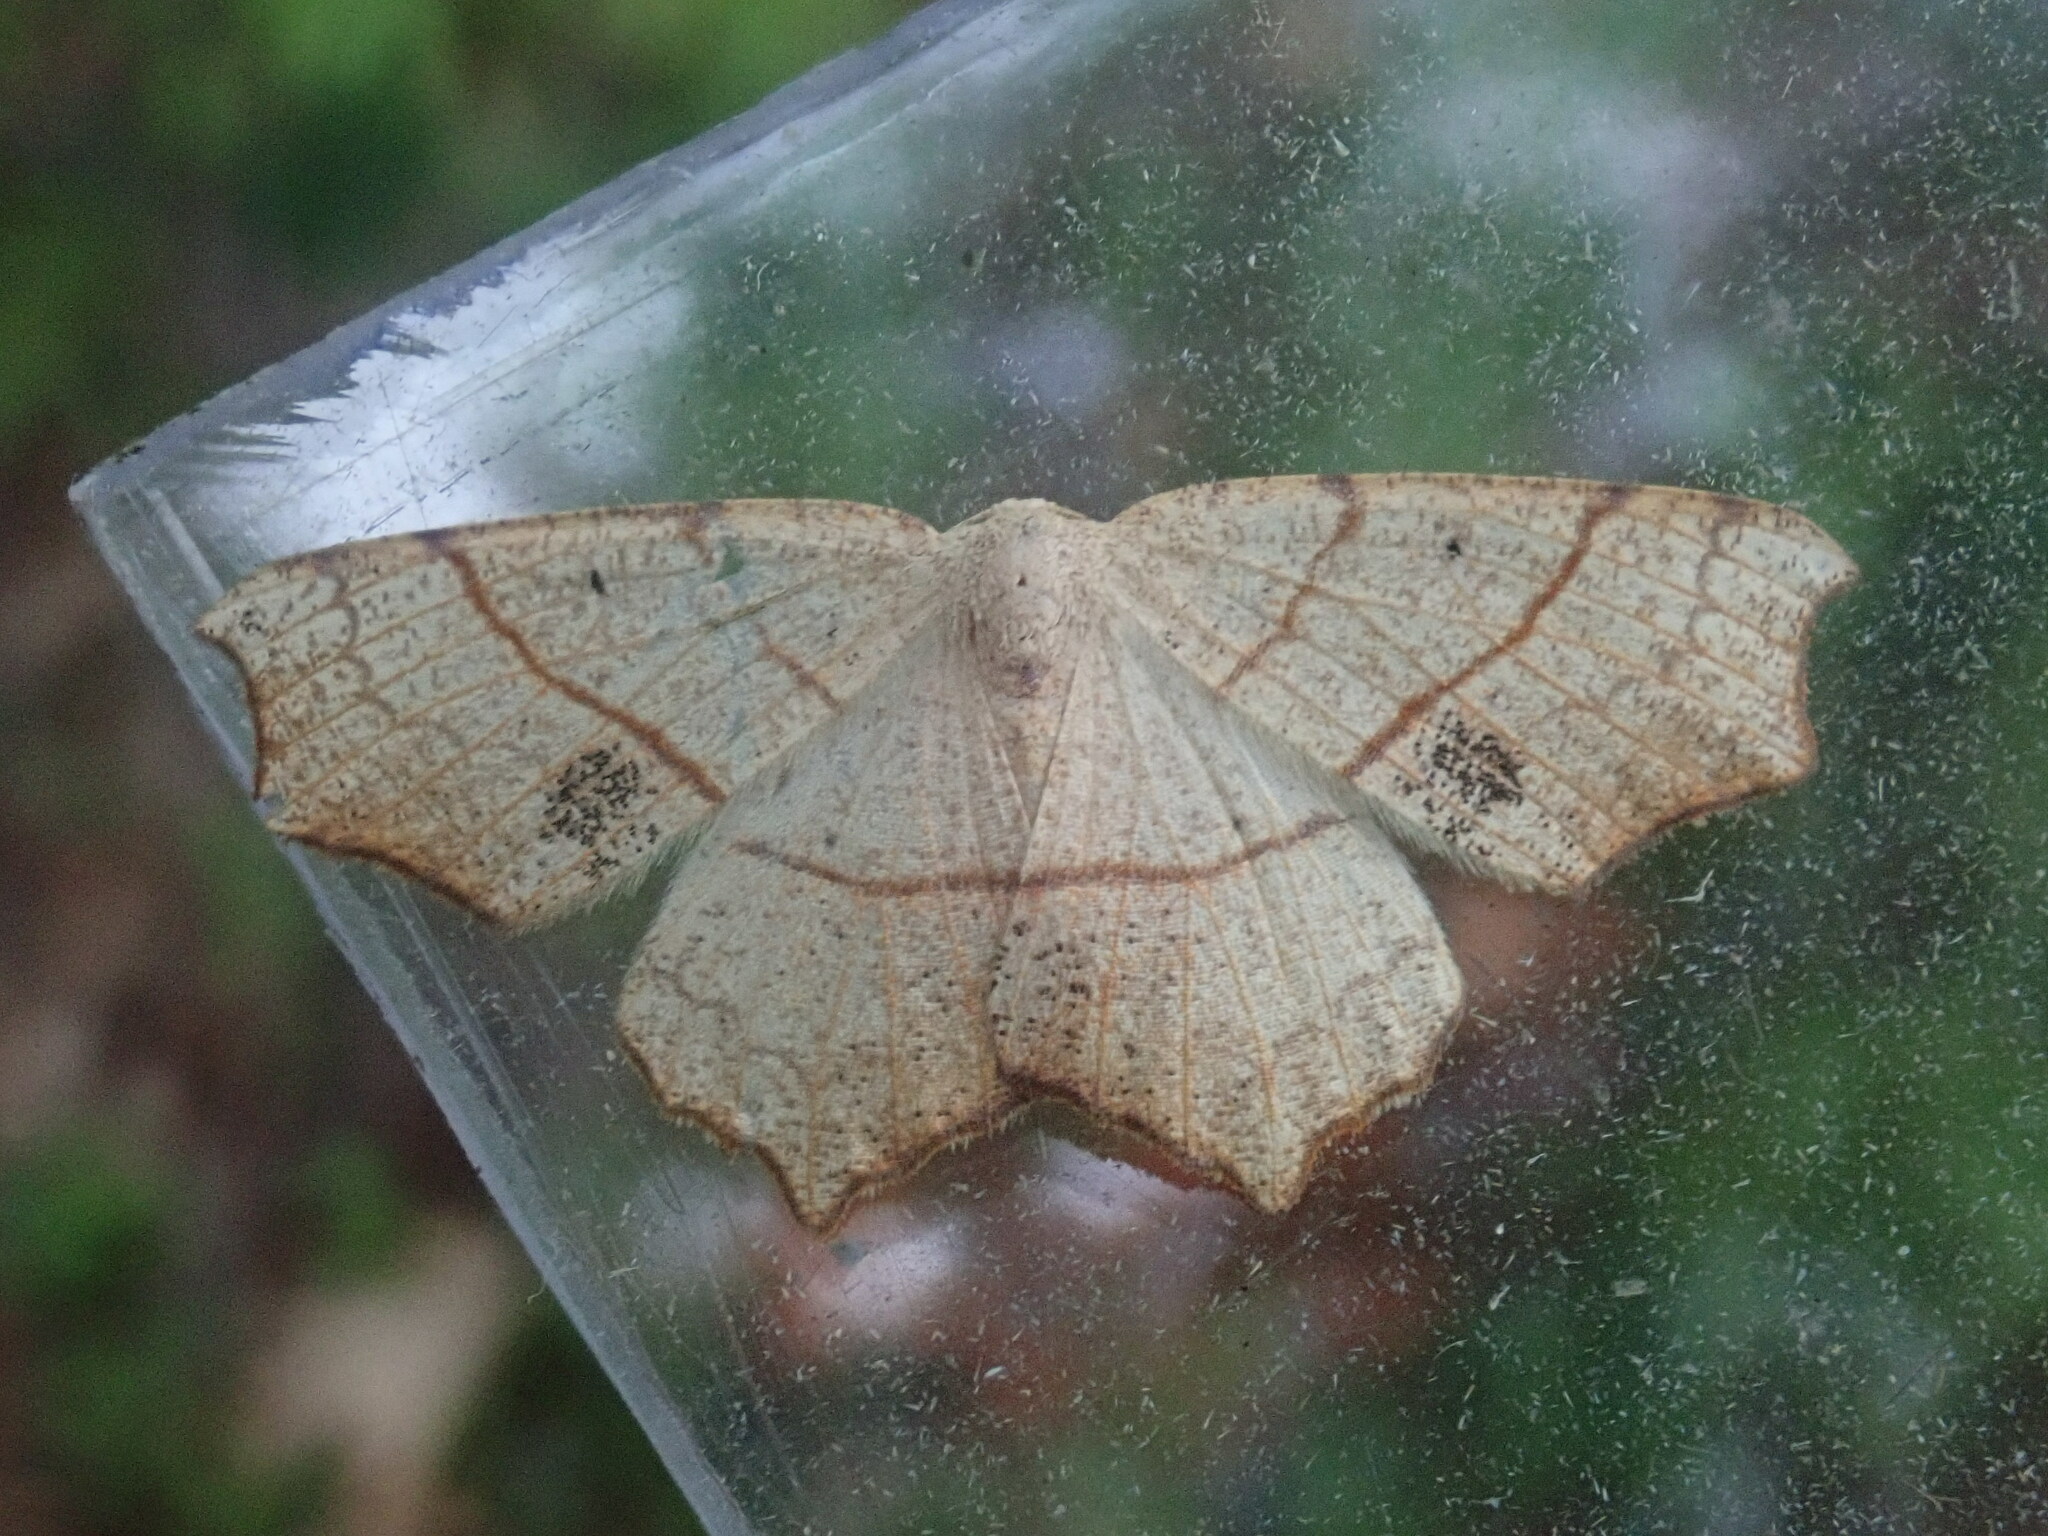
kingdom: Animalia
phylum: Arthropoda
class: Insecta
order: Lepidoptera
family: Geometridae
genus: Besma
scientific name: Besma quercivoraria
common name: Oak besma
